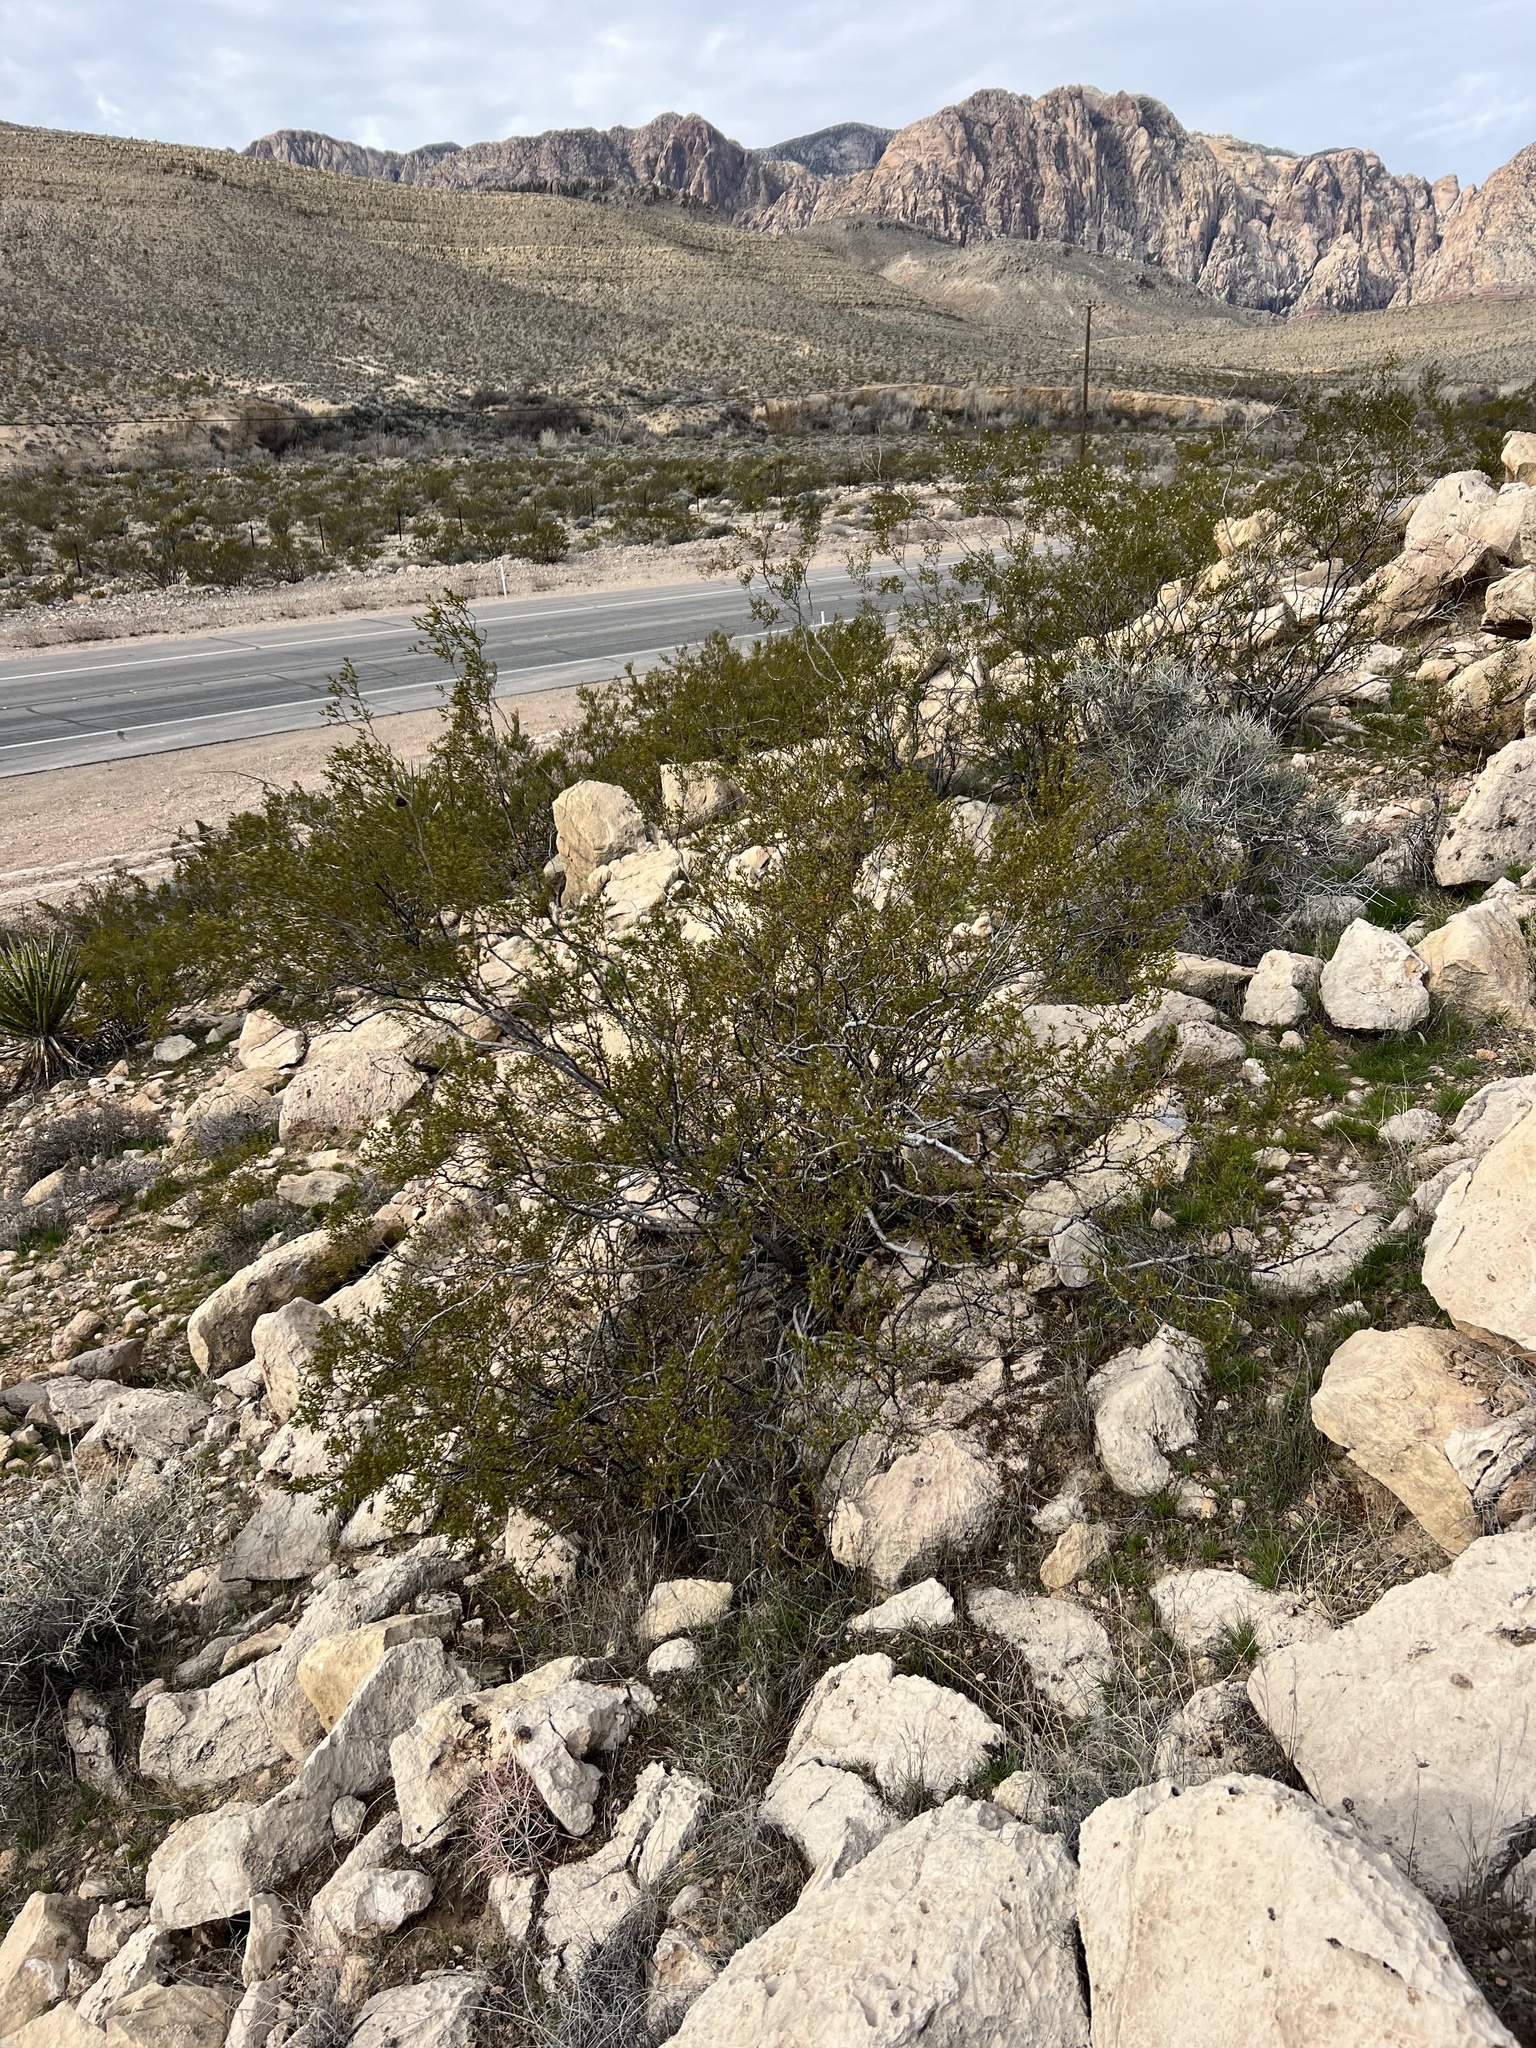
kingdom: Plantae
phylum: Tracheophyta
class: Magnoliopsida
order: Zygophyllales
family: Zygophyllaceae
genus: Larrea
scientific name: Larrea tridentata
